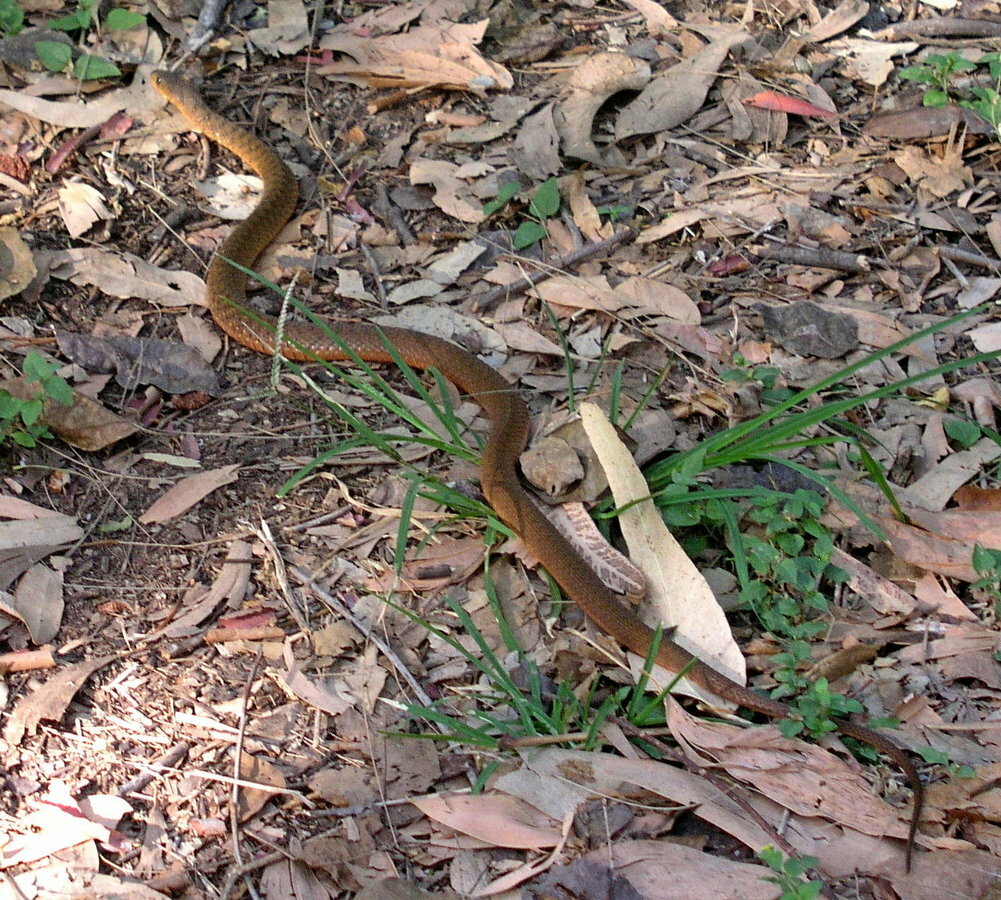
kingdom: Animalia
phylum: Chordata
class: Squamata
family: Colubridae
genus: Tropidonophis
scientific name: Tropidonophis mairii
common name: Common keelback
